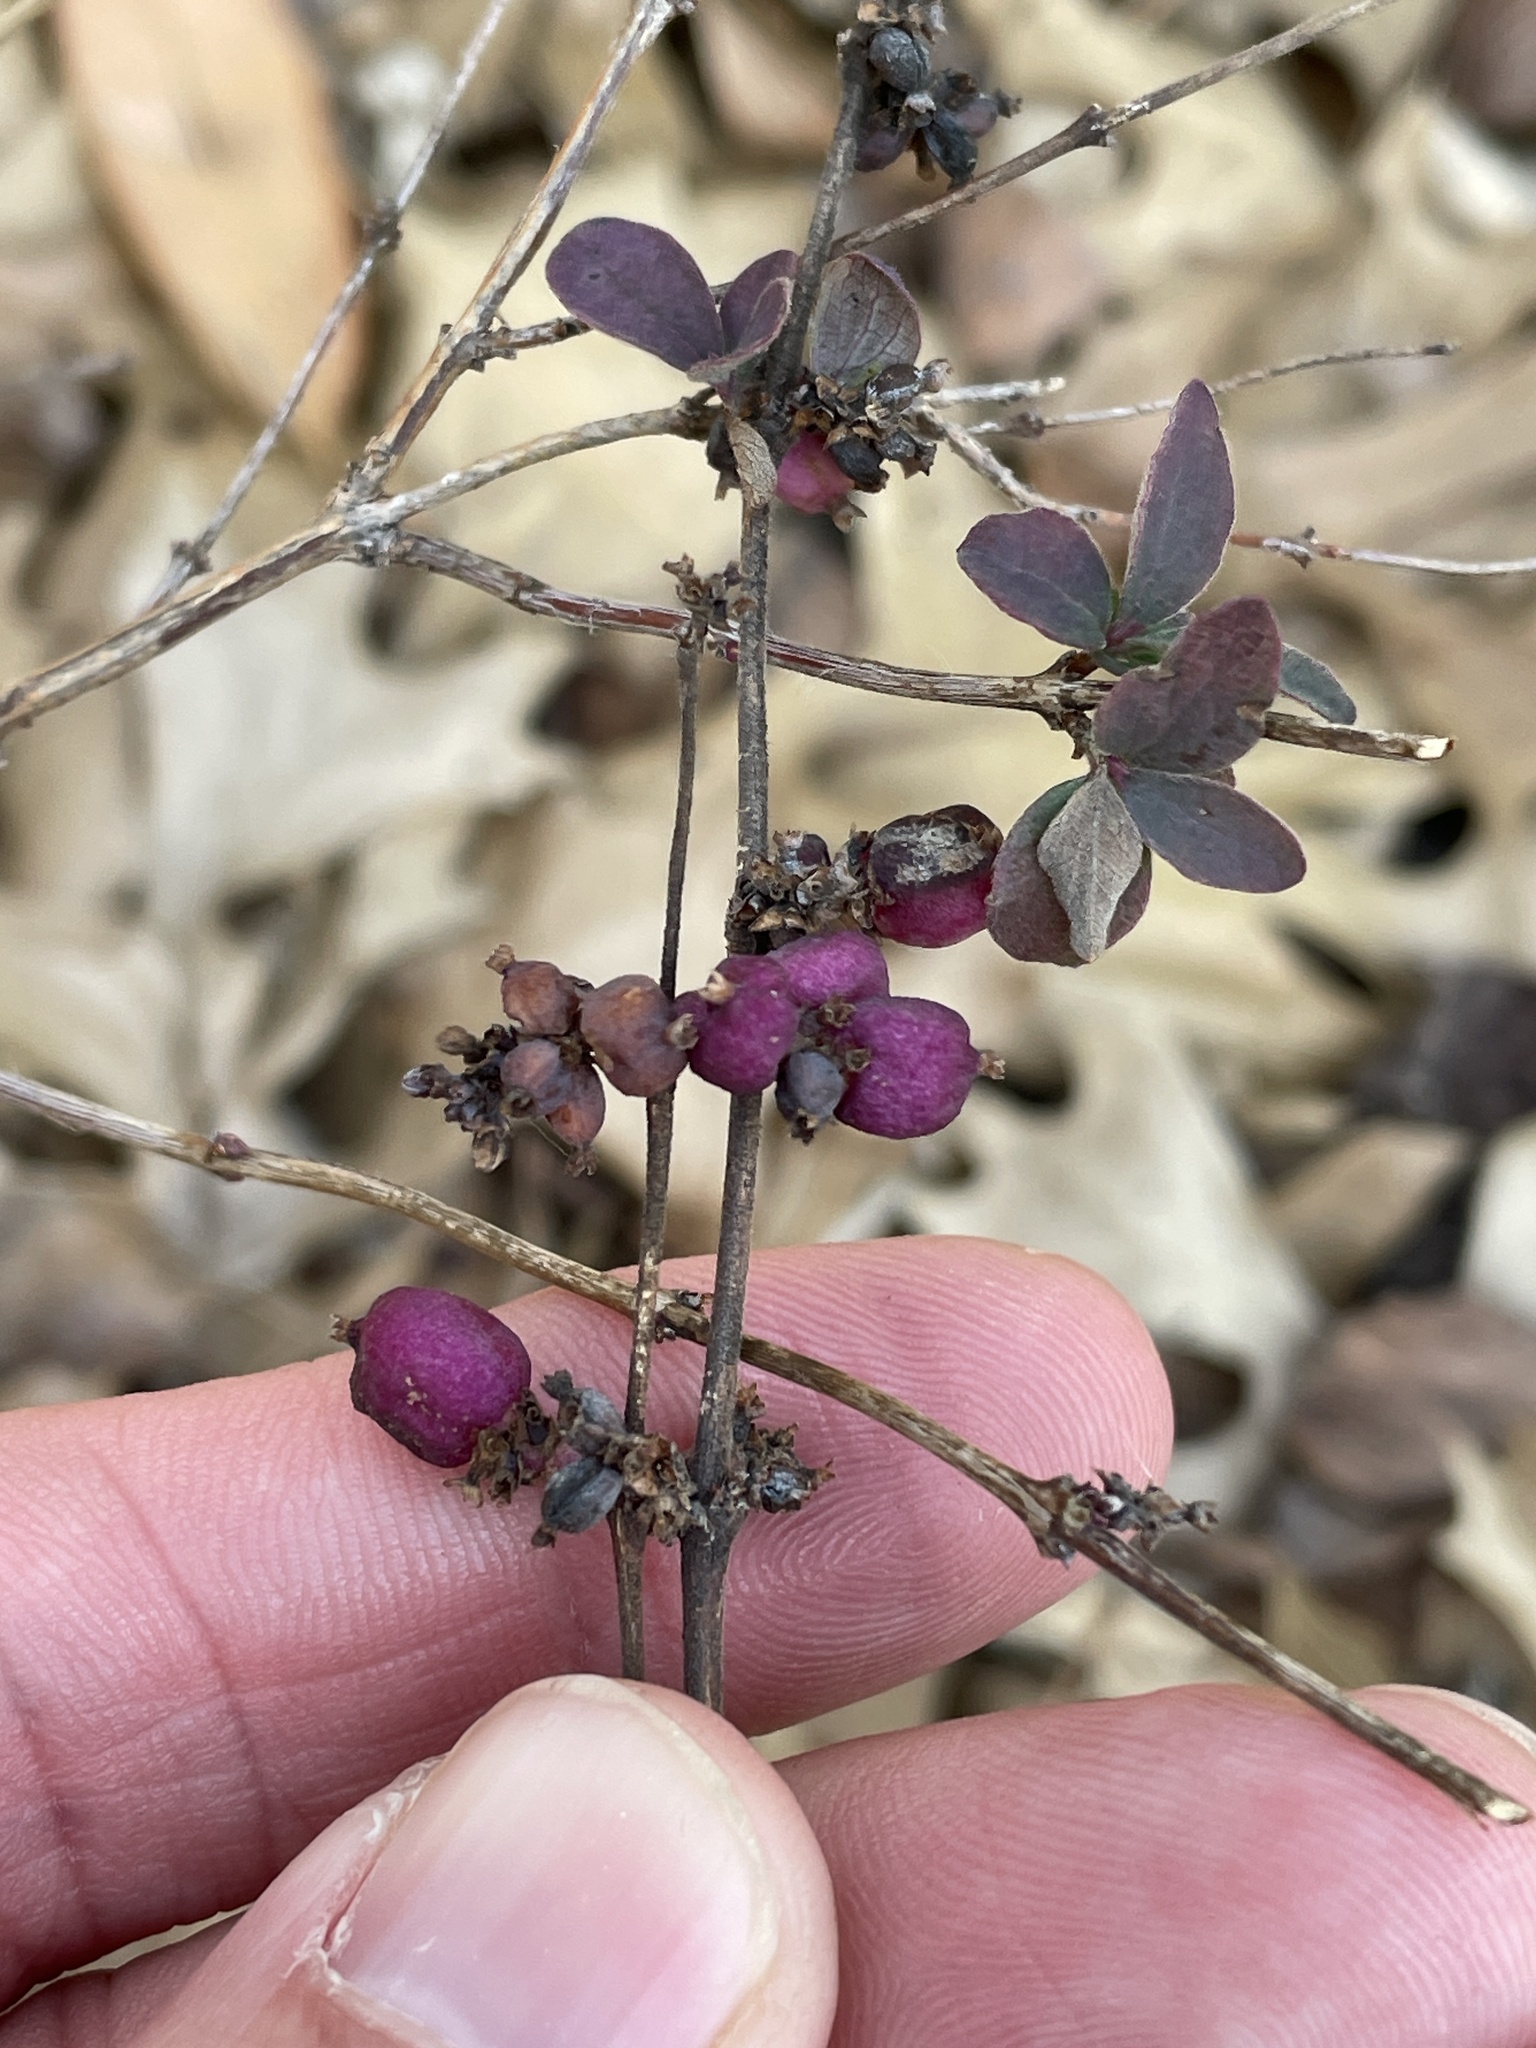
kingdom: Plantae
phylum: Tracheophyta
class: Magnoliopsida
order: Dipsacales
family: Caprifoliaceae
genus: Symphoricarpos
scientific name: Symphoricarpos orbiculatus
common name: Coralberry
